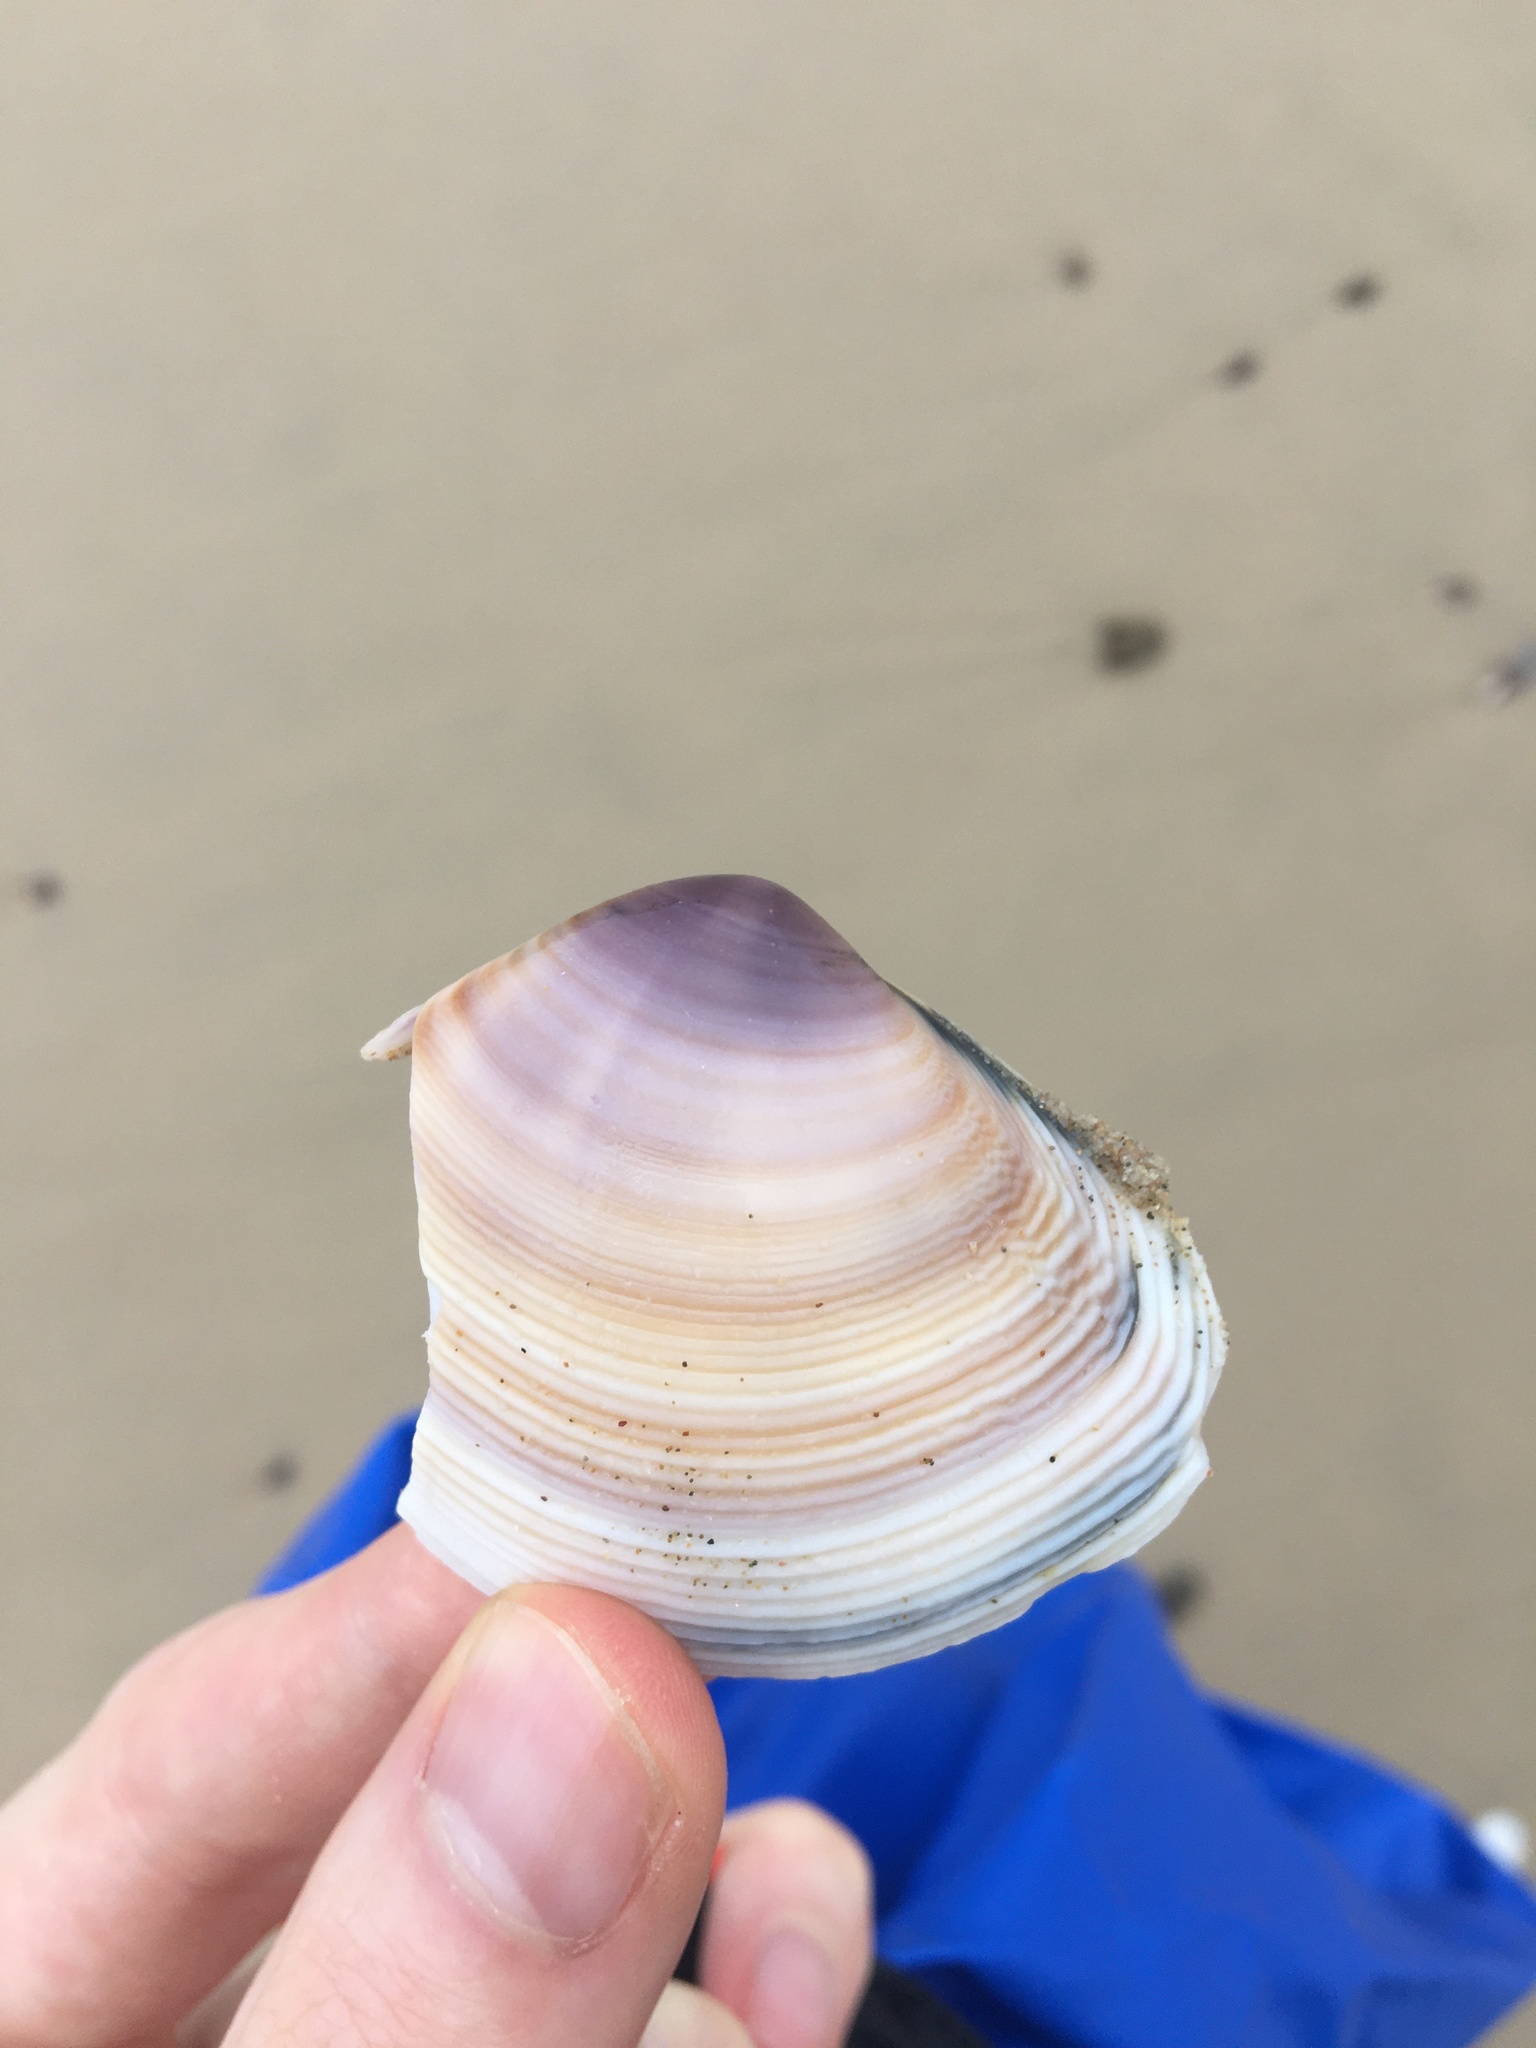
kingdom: Animalia
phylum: Mollusca
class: Bivalvia
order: Venerida
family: Mactridae
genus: Austromactra
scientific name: Austromactra contraria
